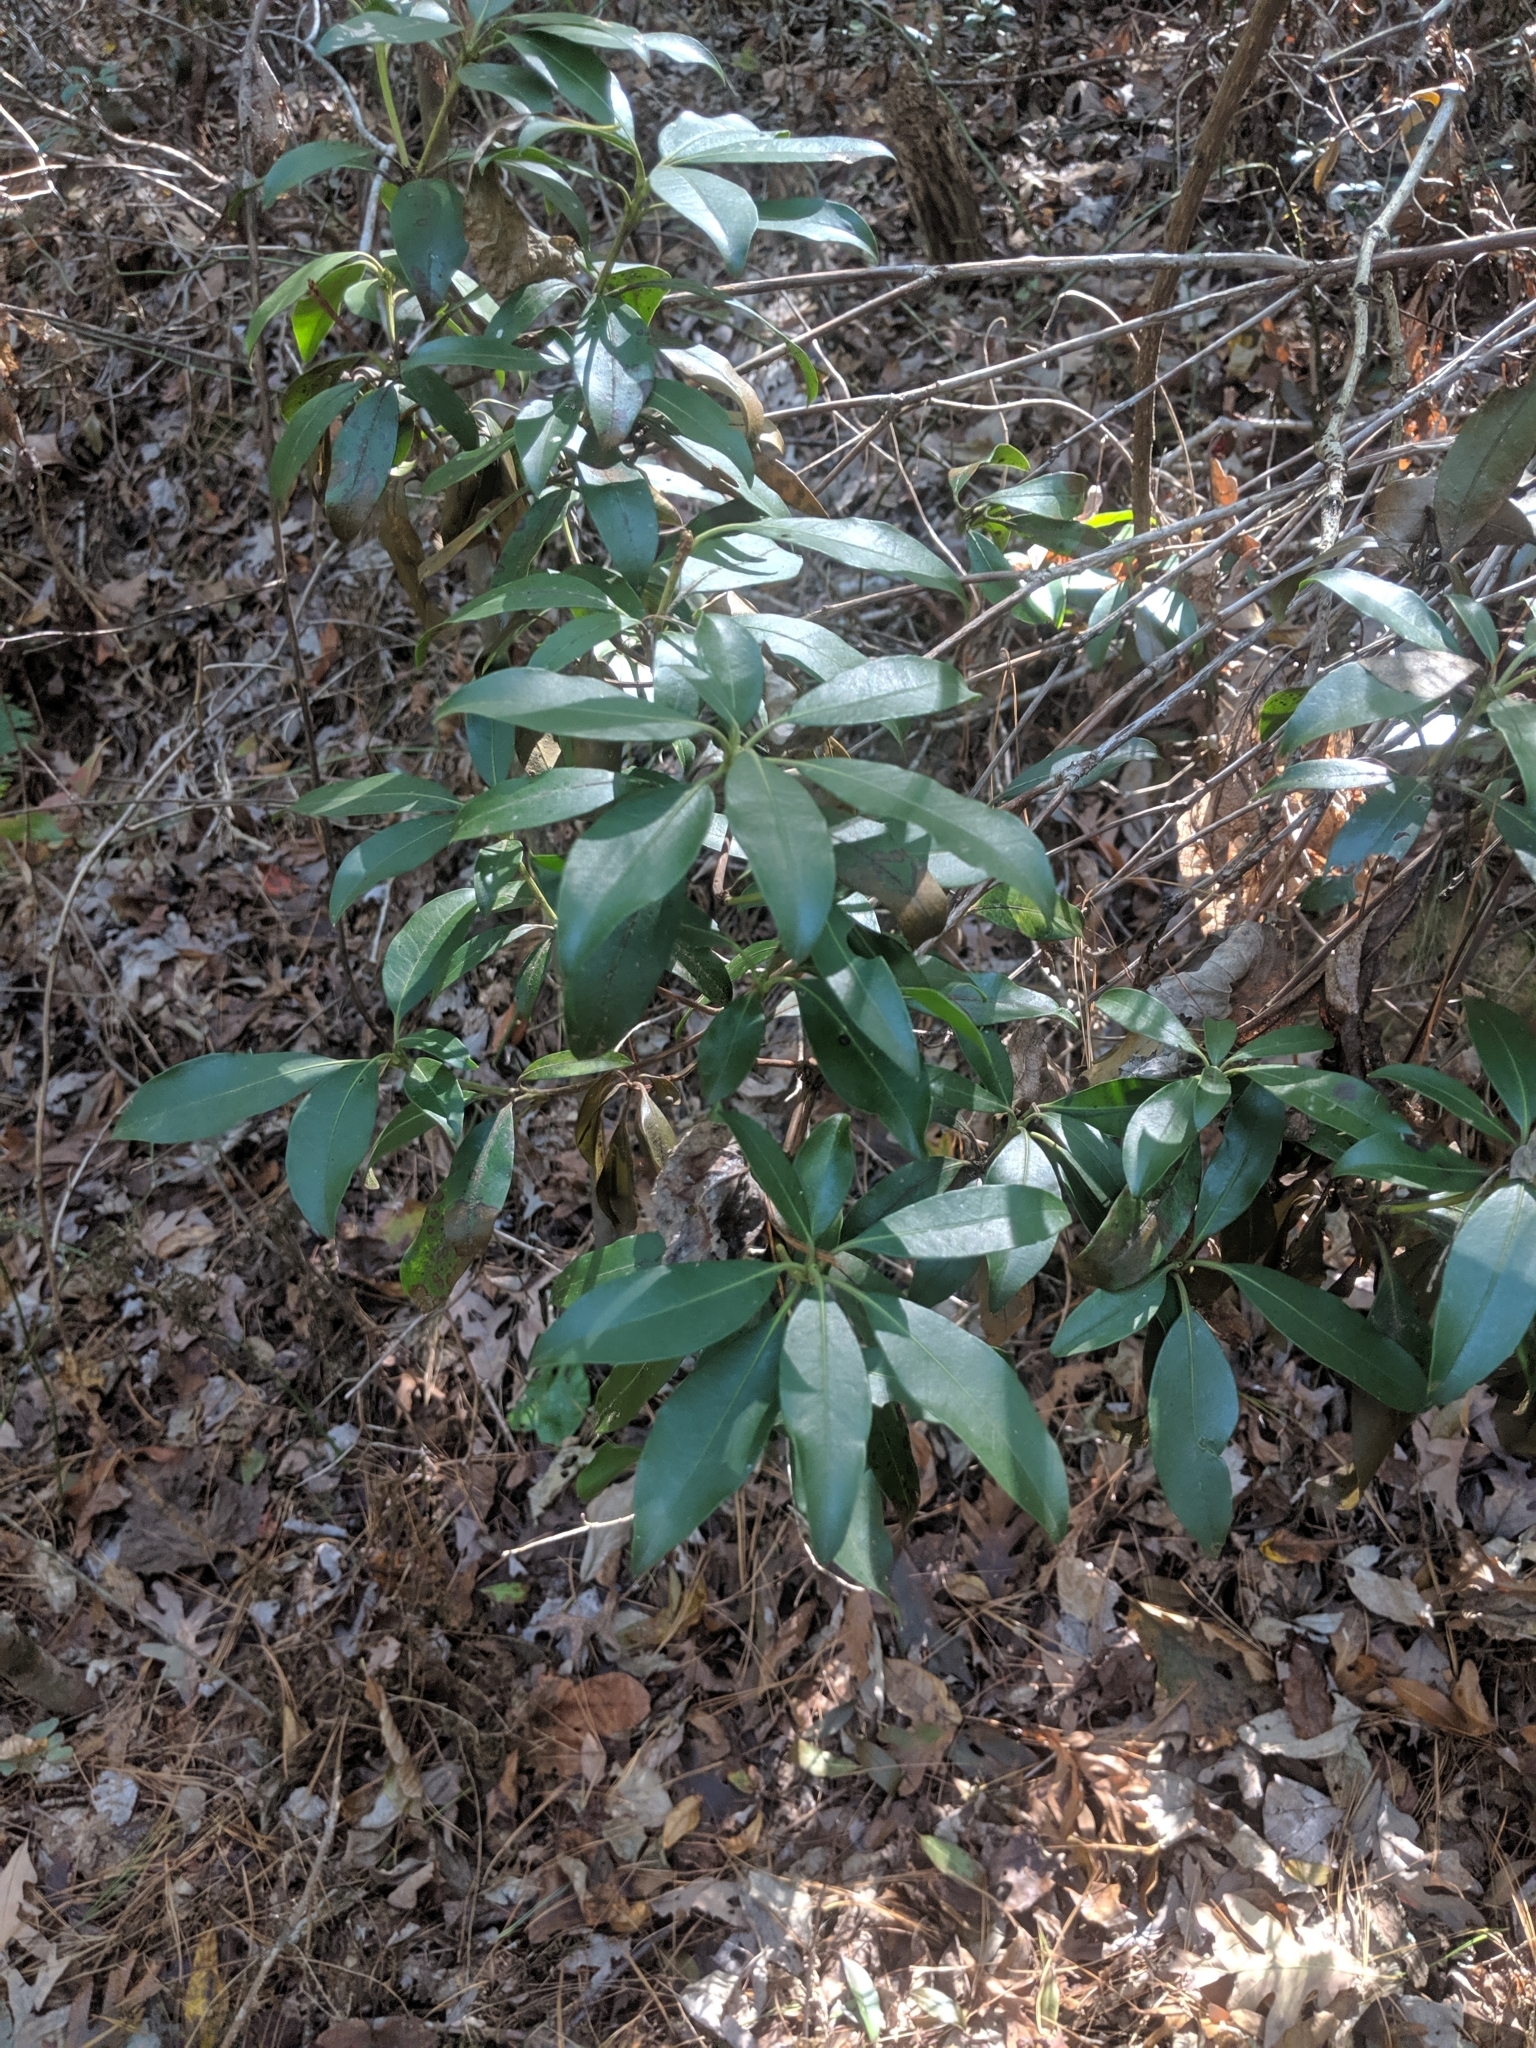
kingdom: Plantae
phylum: Tracheophyta
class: Magnoliopsida
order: Ericales
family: Ericaceae
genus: Kalmia
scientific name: Kalmia latifolia
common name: Mountain-laurel
